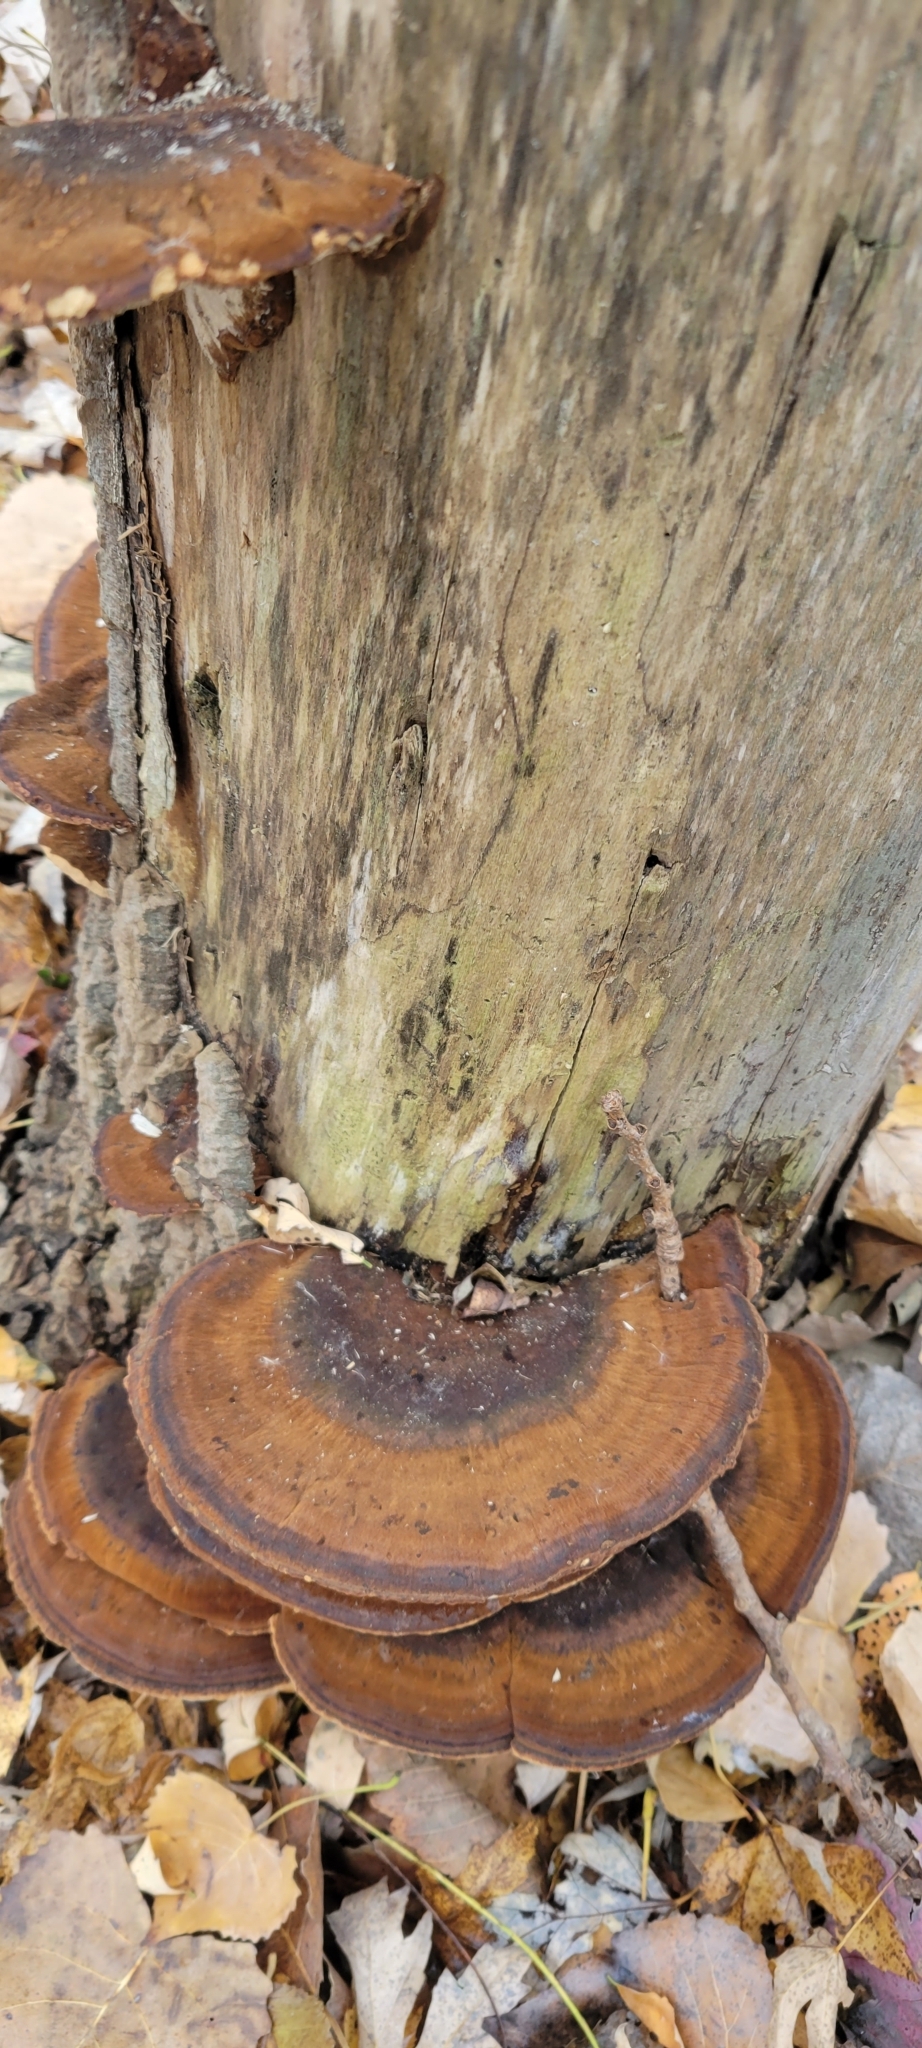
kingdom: Fungi
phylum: Basidiomycota
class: Agaricomycetes
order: Polyporales
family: Ischnodermataceae
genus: Ischnoderma
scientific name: Ischnoderma resinosum
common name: Resinous polypore
